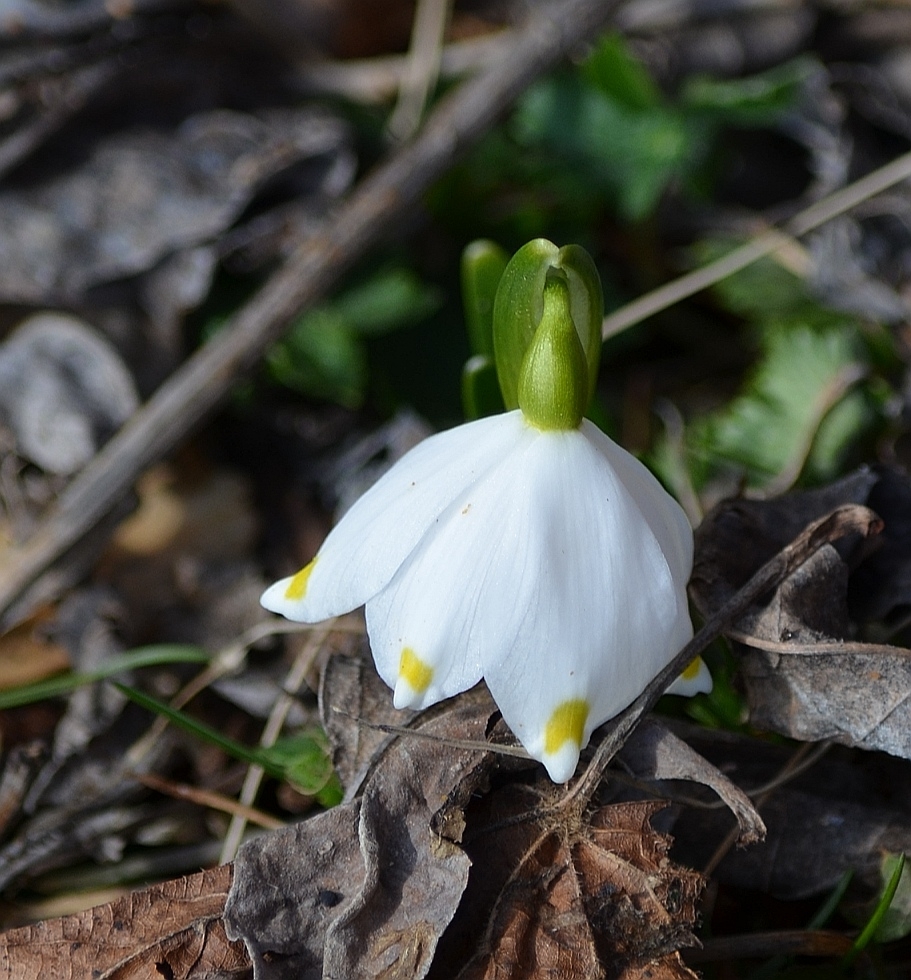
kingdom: Plantae
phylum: Tracheophyta
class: Liliopsida
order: Asparagales
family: Amaryllidaceae
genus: Leucojum
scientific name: Leucojum vernum
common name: Spring snowflake
